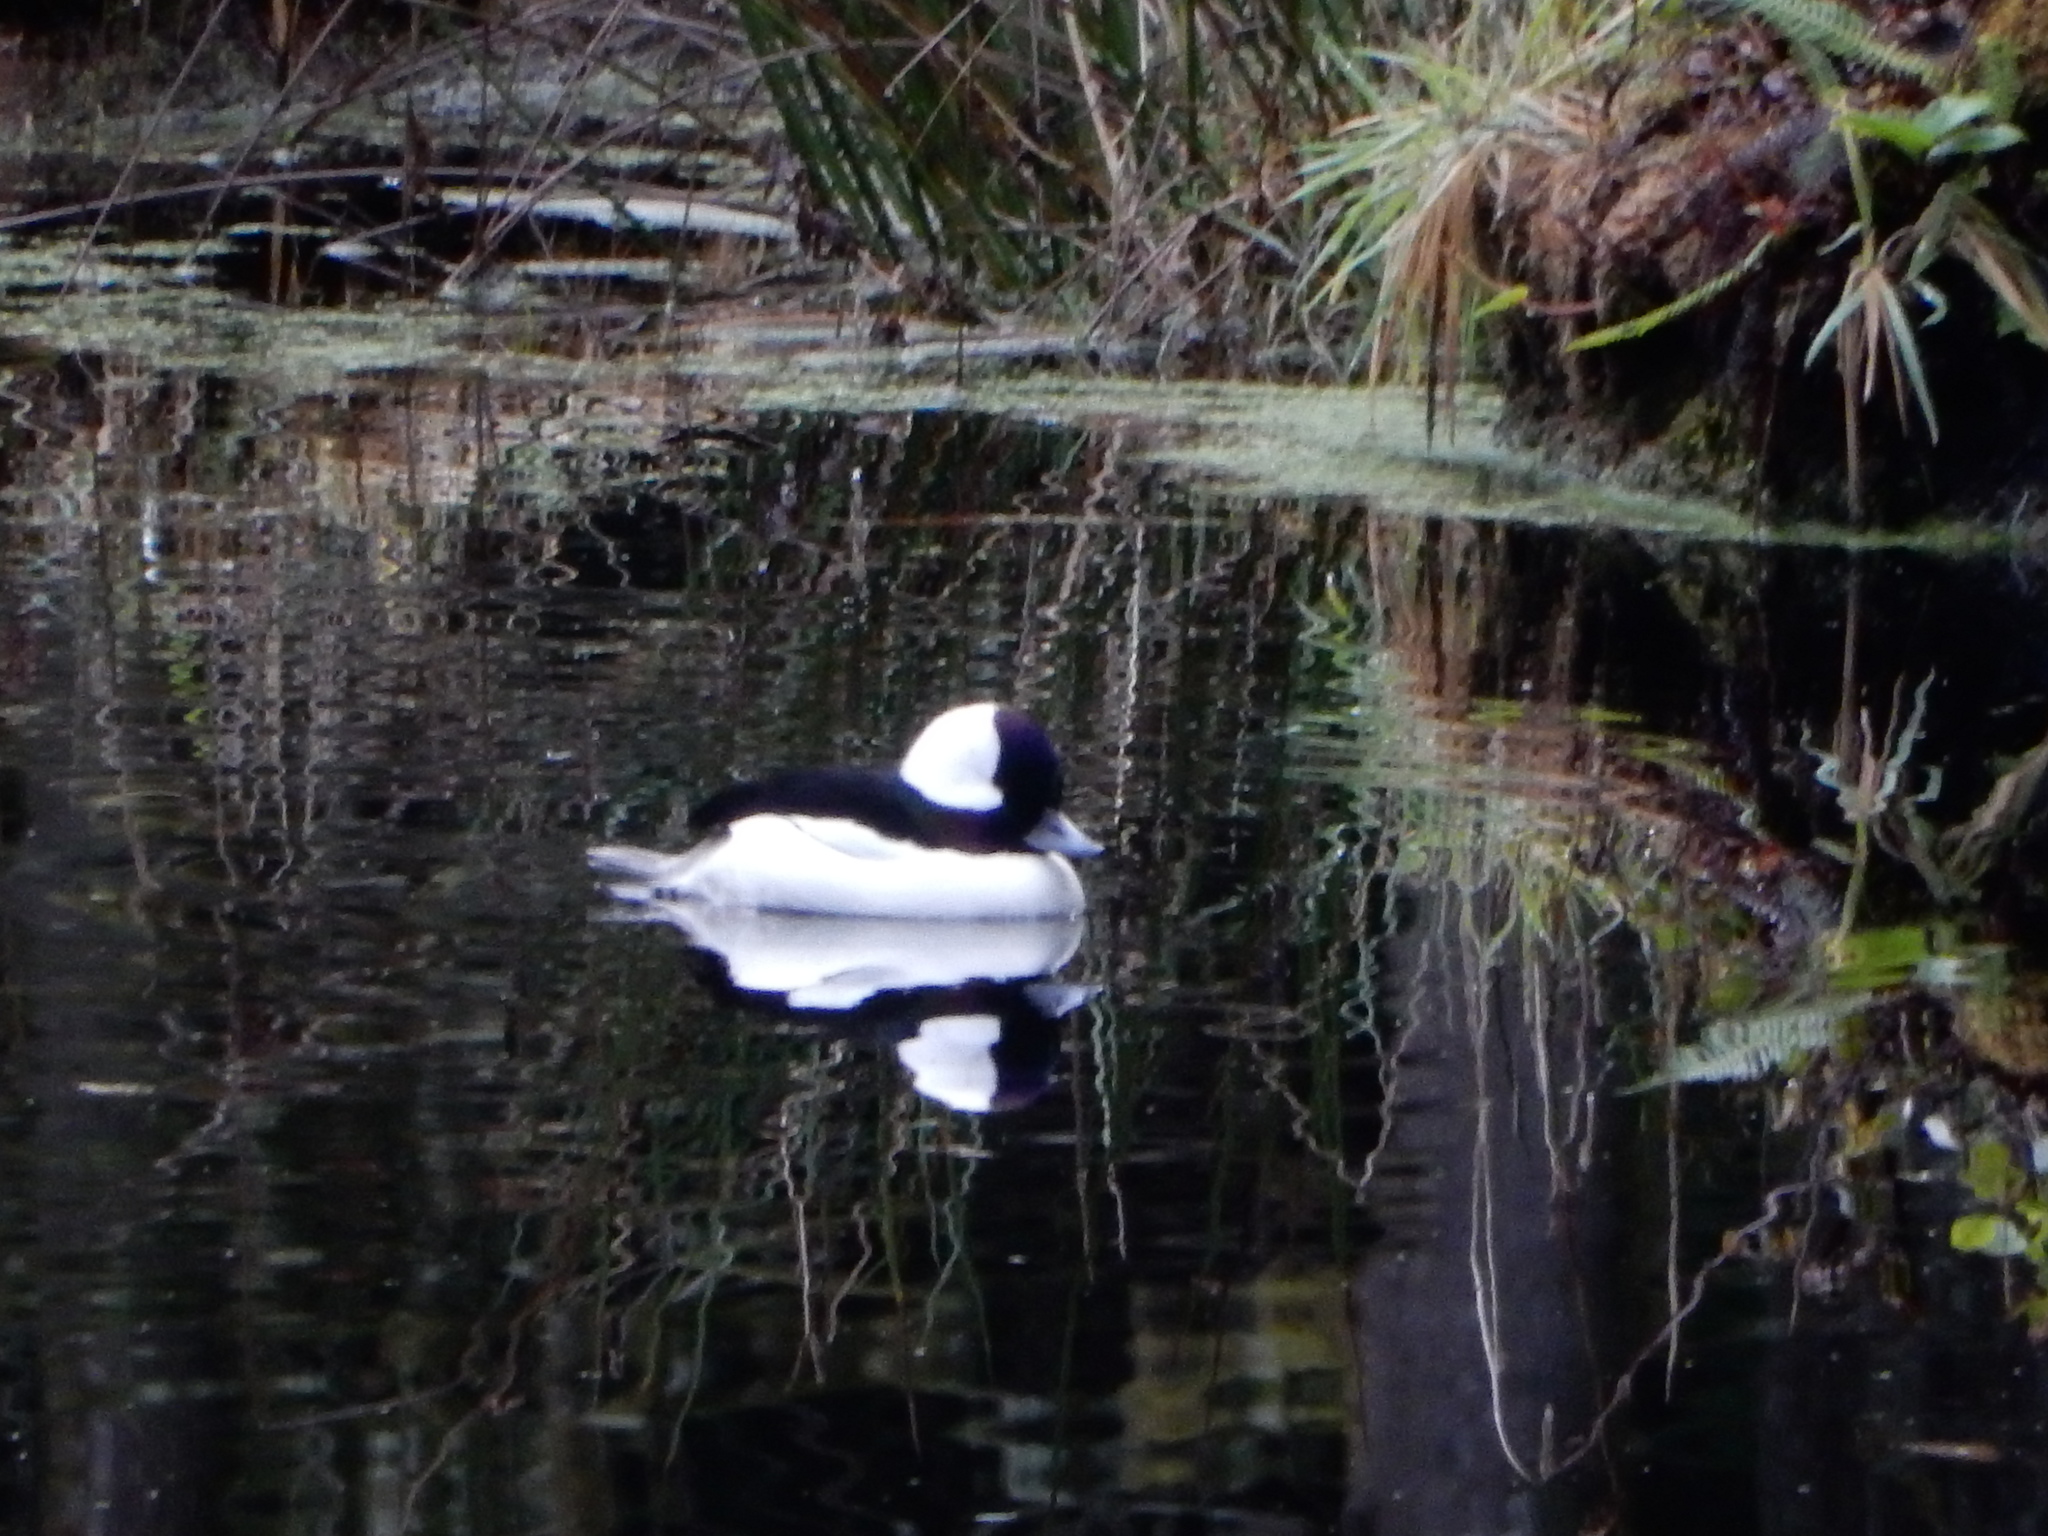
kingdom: Animalia
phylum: Chordata
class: Aves
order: Anseriformes
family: Anatidae
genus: Bucephala
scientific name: Bucephala albeola
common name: Bufflehead
